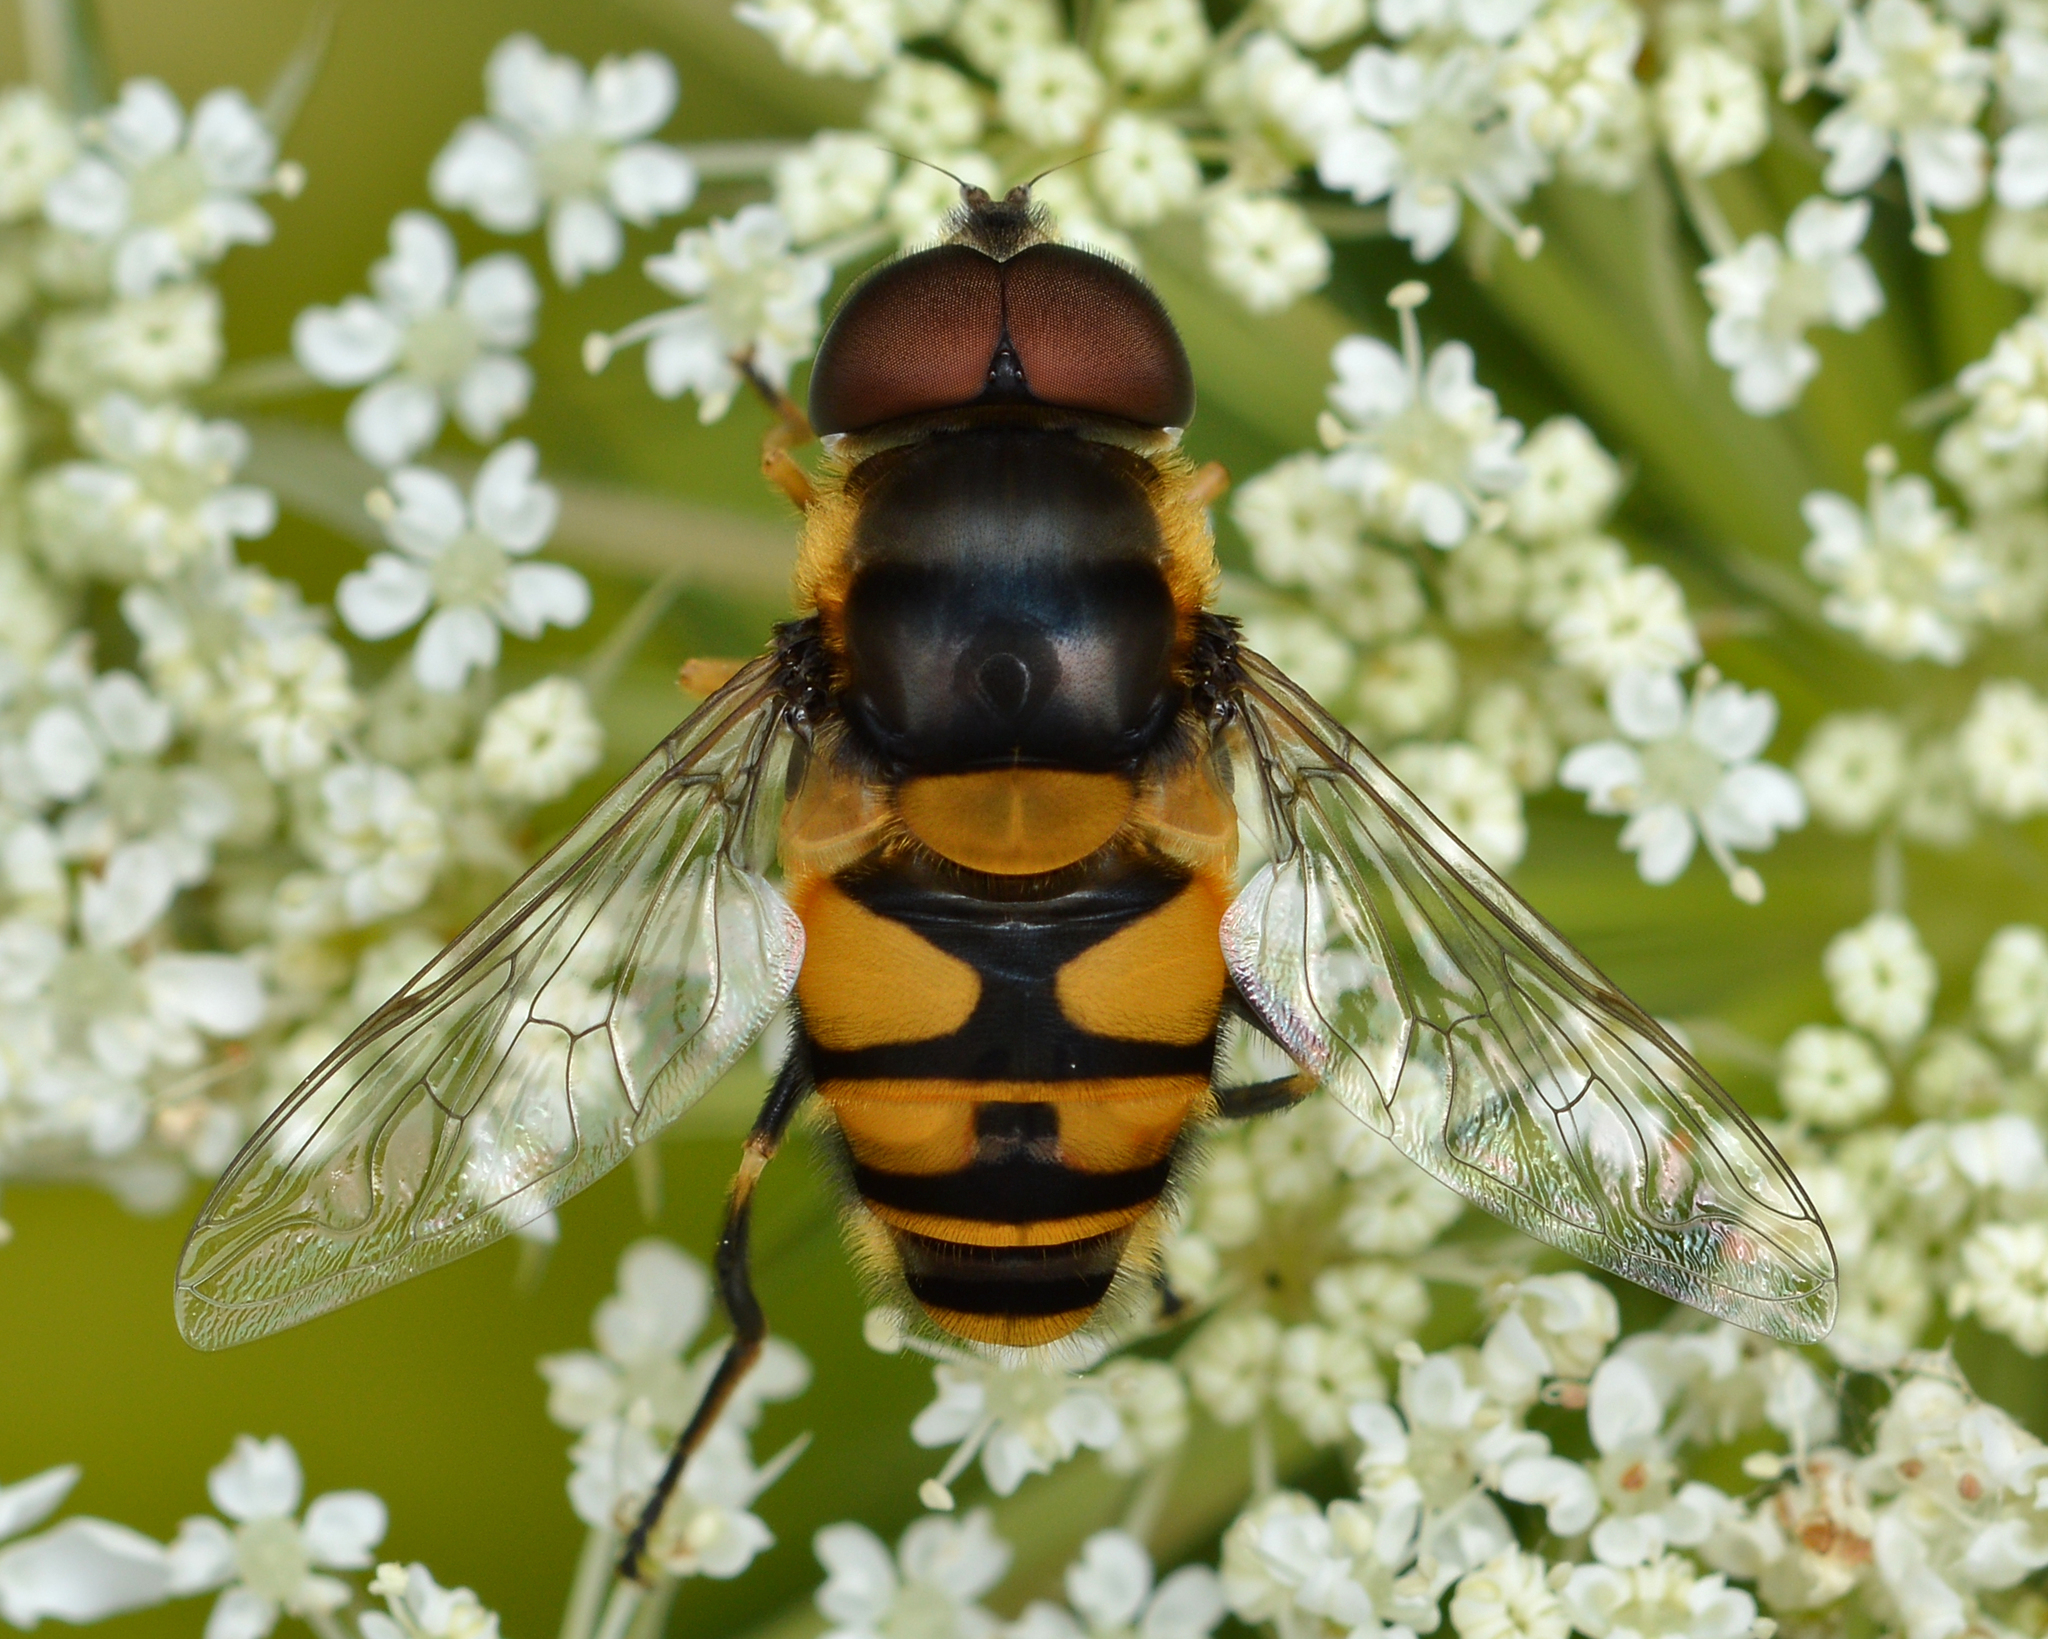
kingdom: Animalia
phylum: Arthropoda
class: Insecta
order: Diptera
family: Syrphidae
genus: Eristalis
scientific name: Eristalis transversa
